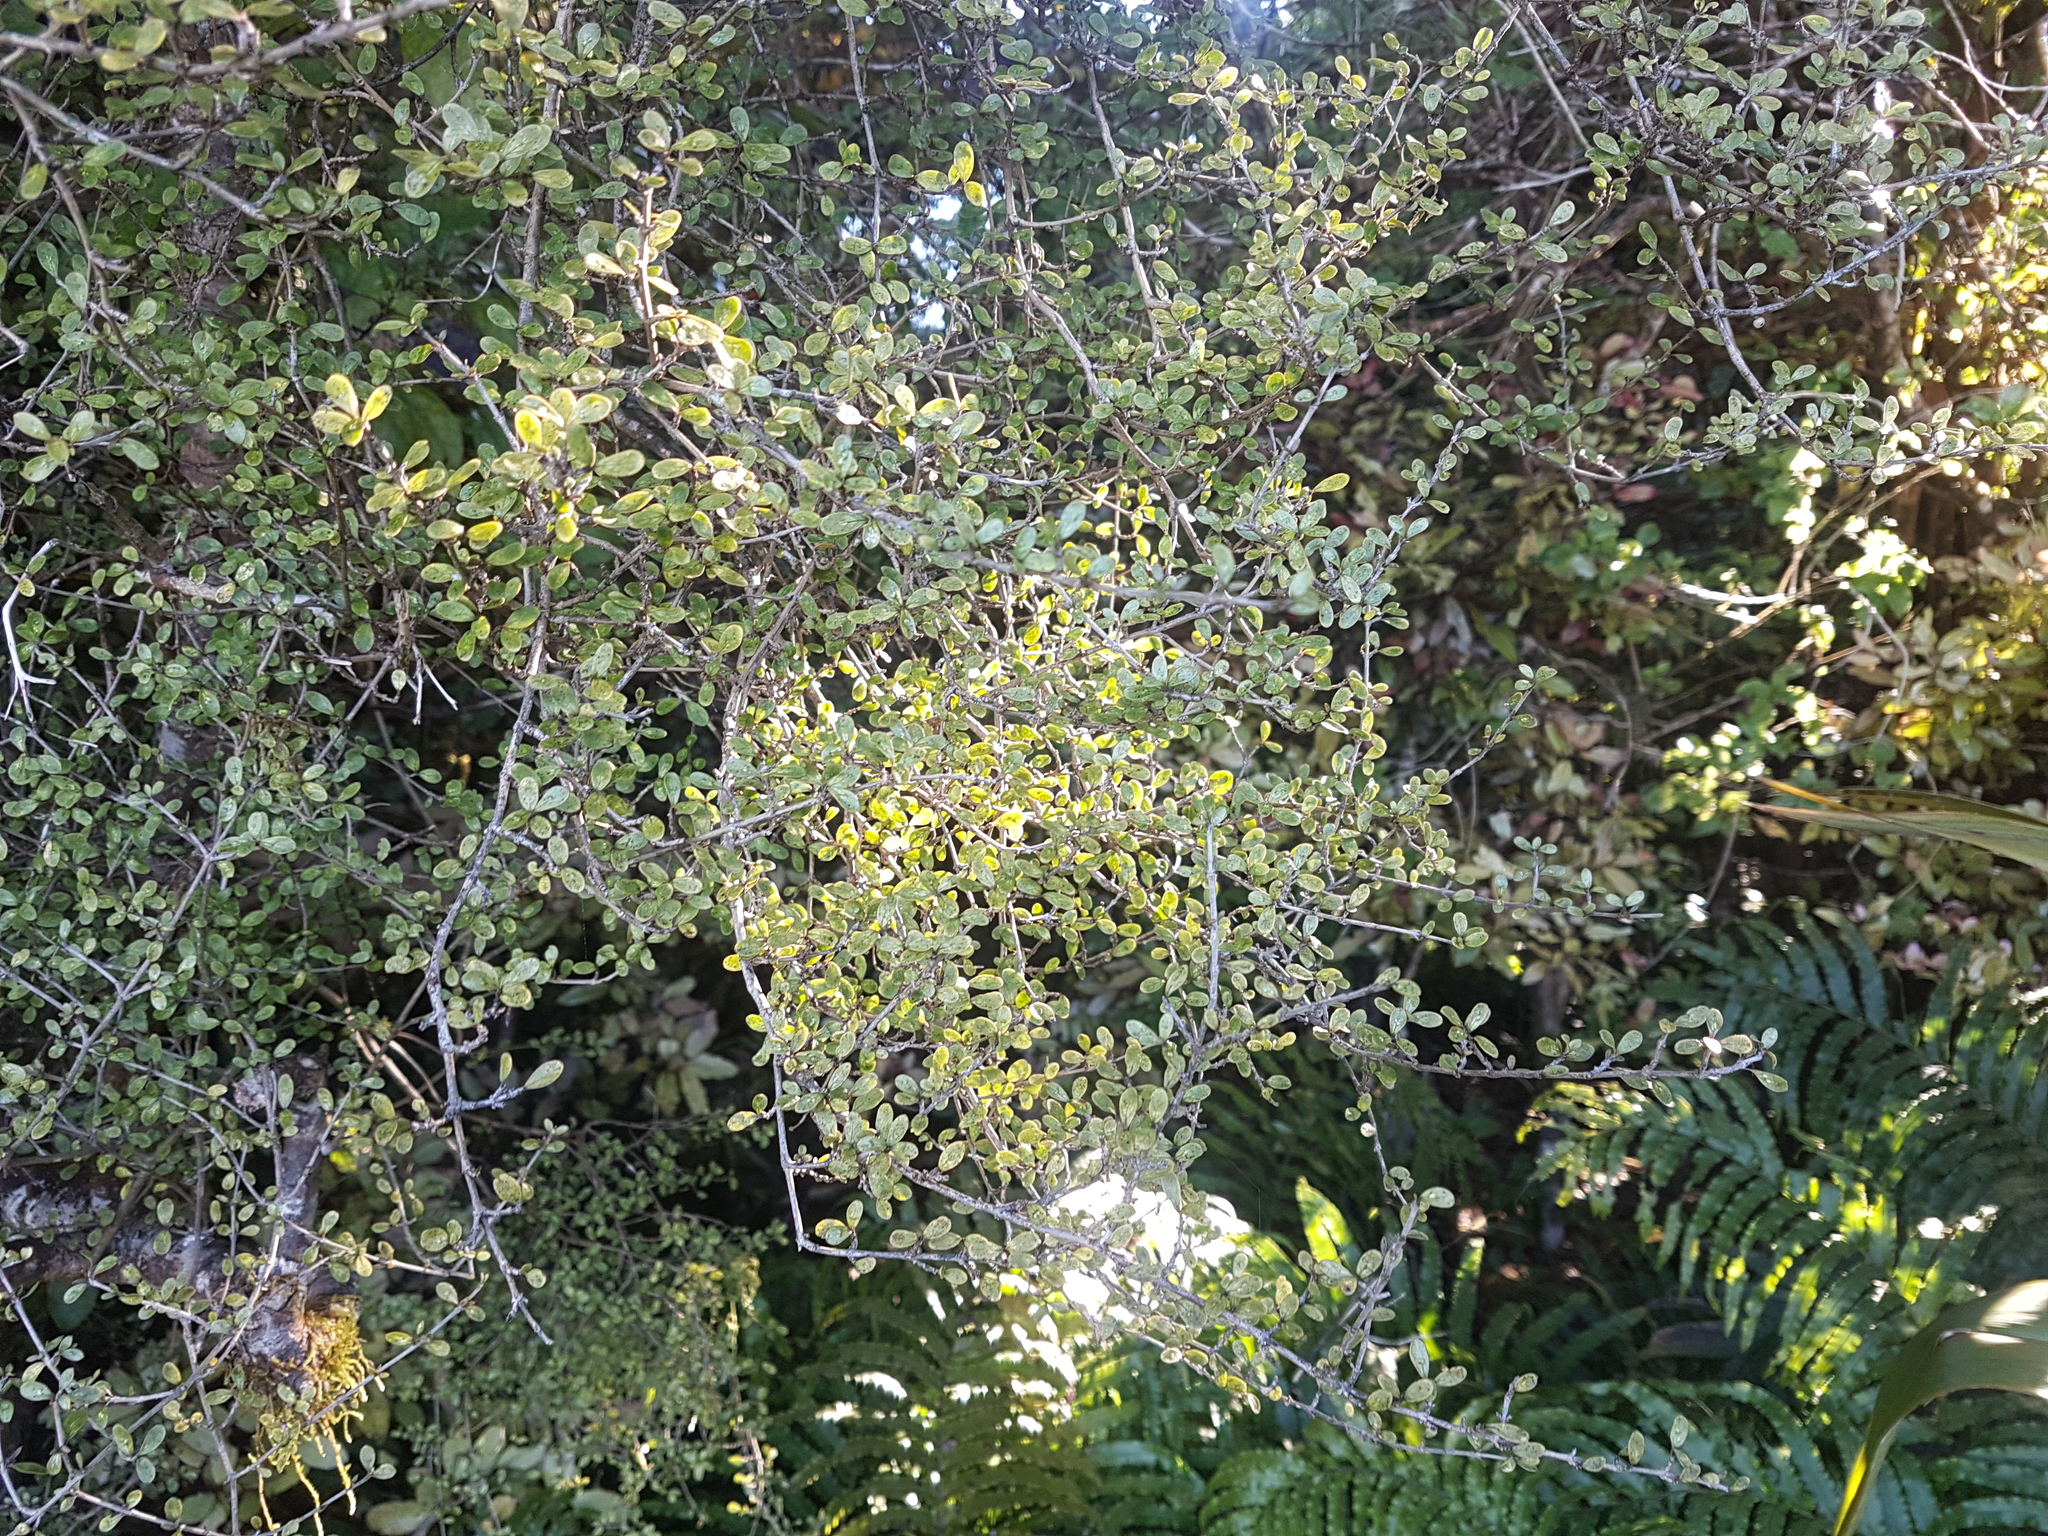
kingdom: Plantae
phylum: Tracheophyta
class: Magnoliopsida
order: Gentianales
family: Rubiaceae
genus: Coprosma
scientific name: Coprosma dumosa
